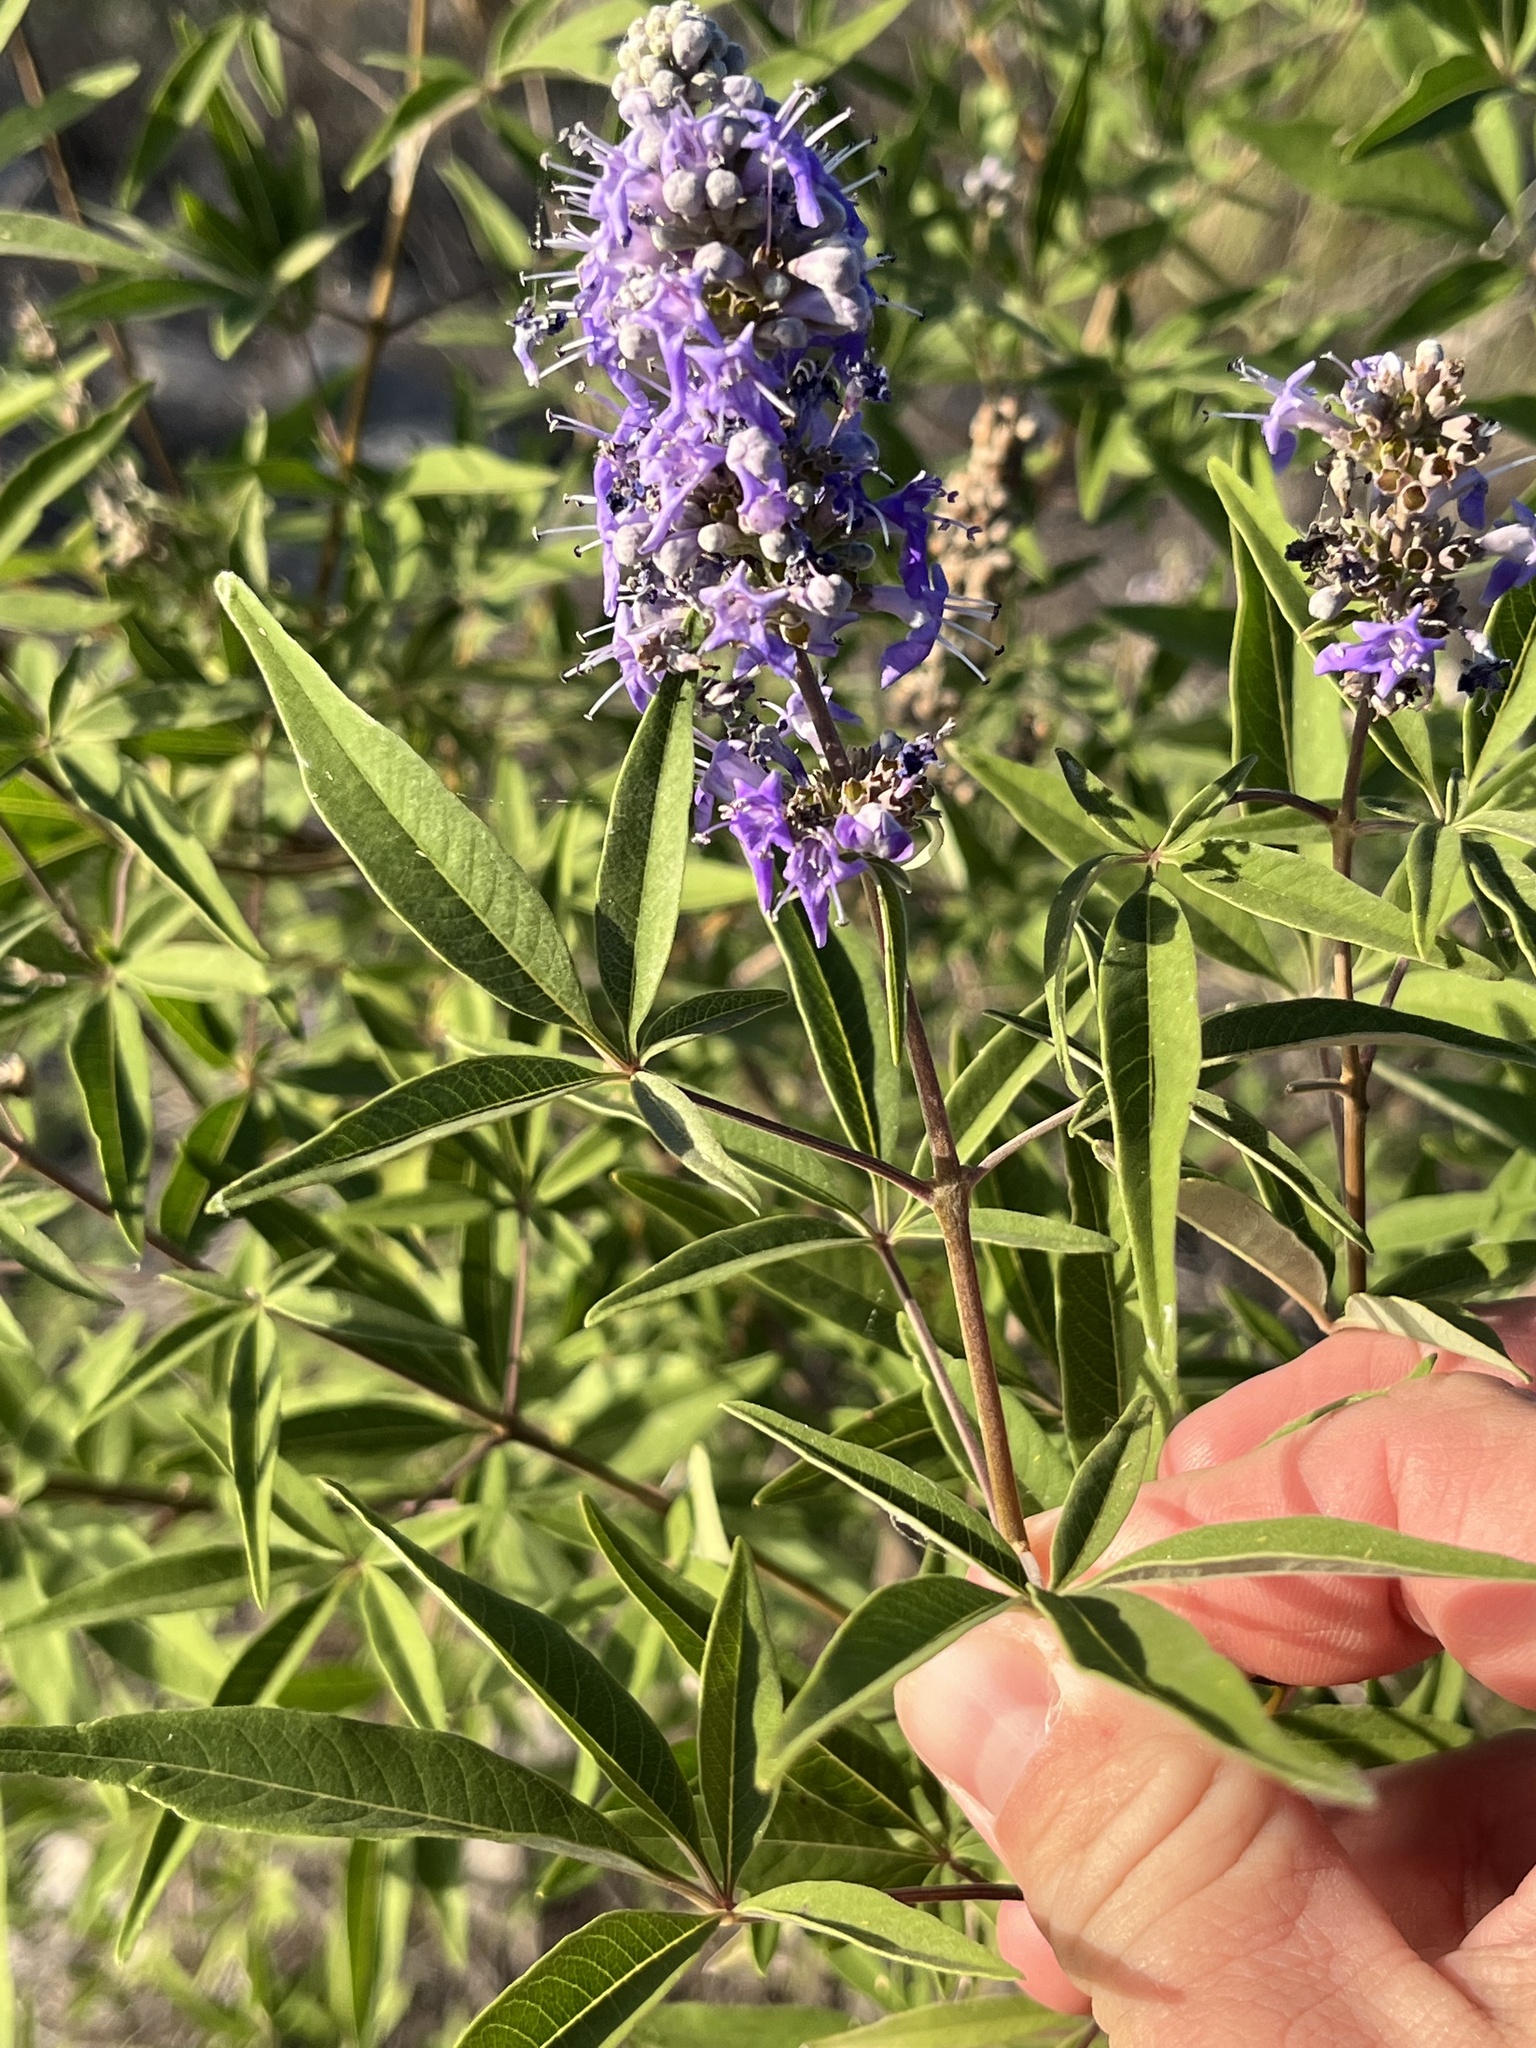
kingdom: Plantae
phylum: Tracheophyta
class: Magnoliopsida
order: Lamiales
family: Lamiaceae
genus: Vitex
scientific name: Vitex agnus-castus
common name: Chasteberry
